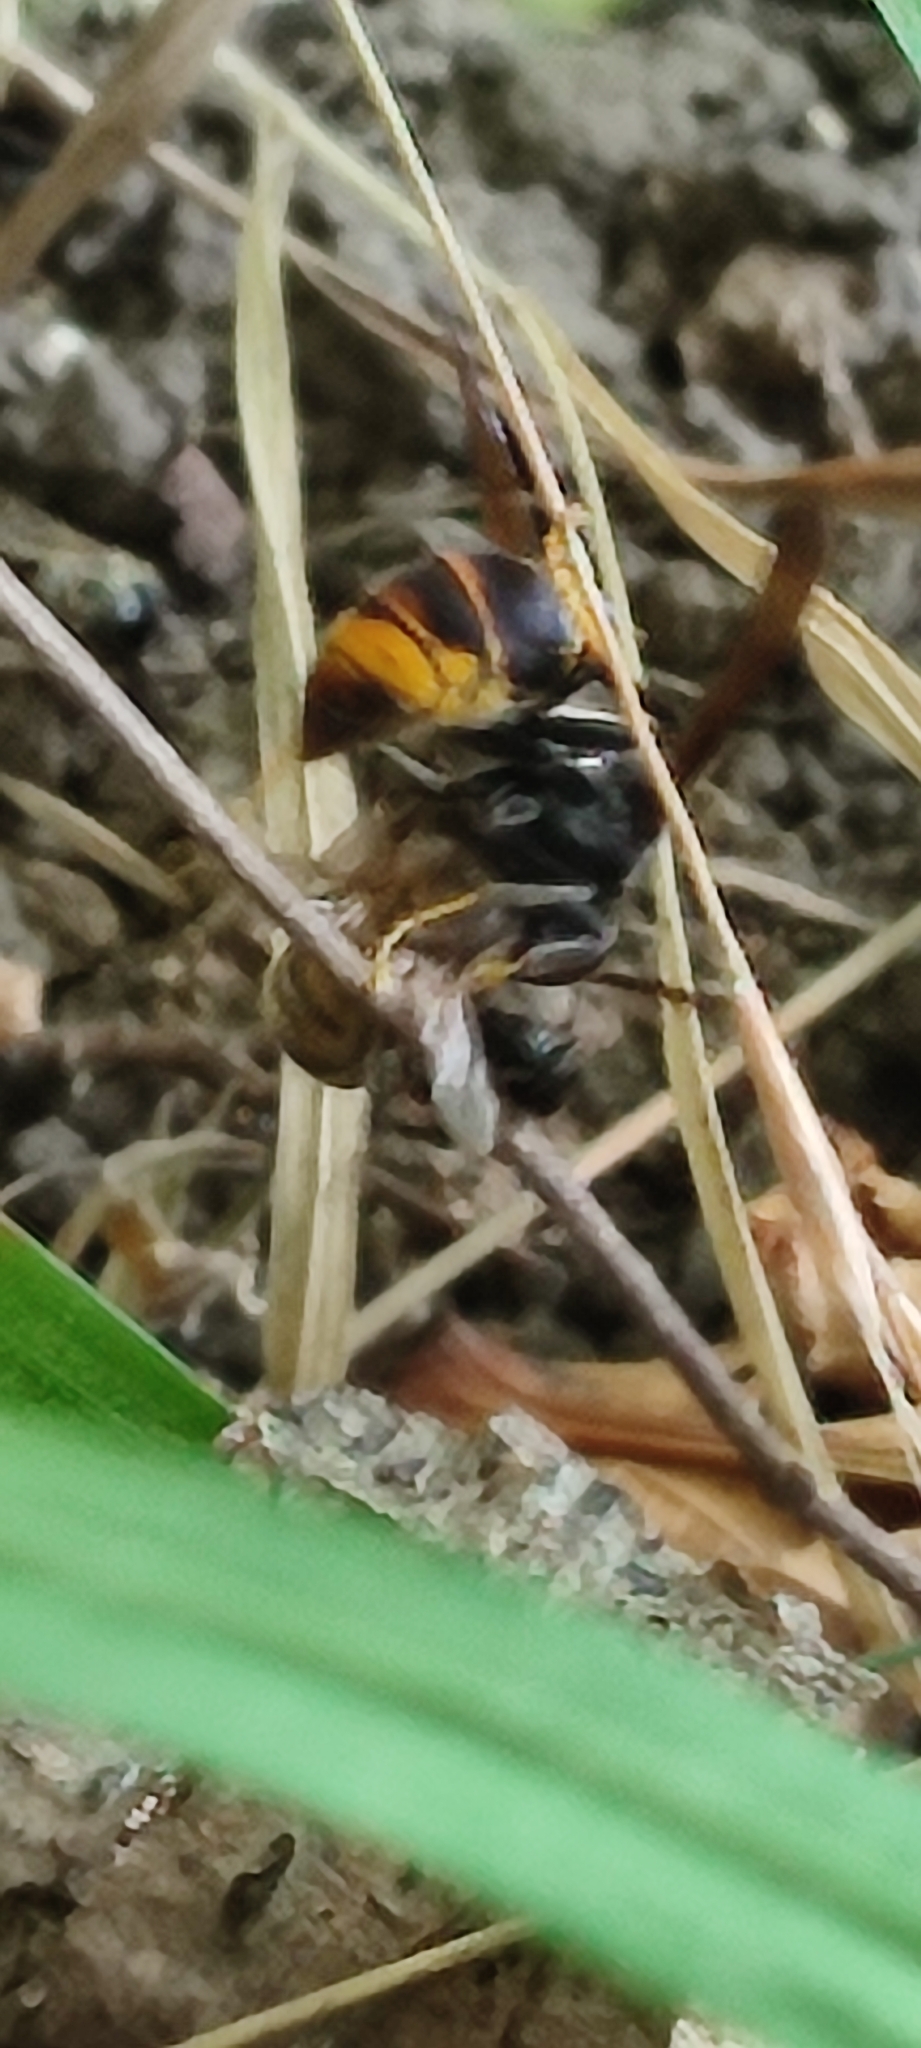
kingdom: Animalia
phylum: Arthropoda
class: Insecta
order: Hymenoptera
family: Vespidae
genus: Vespa
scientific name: Vespa velutina
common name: Asian hornet
